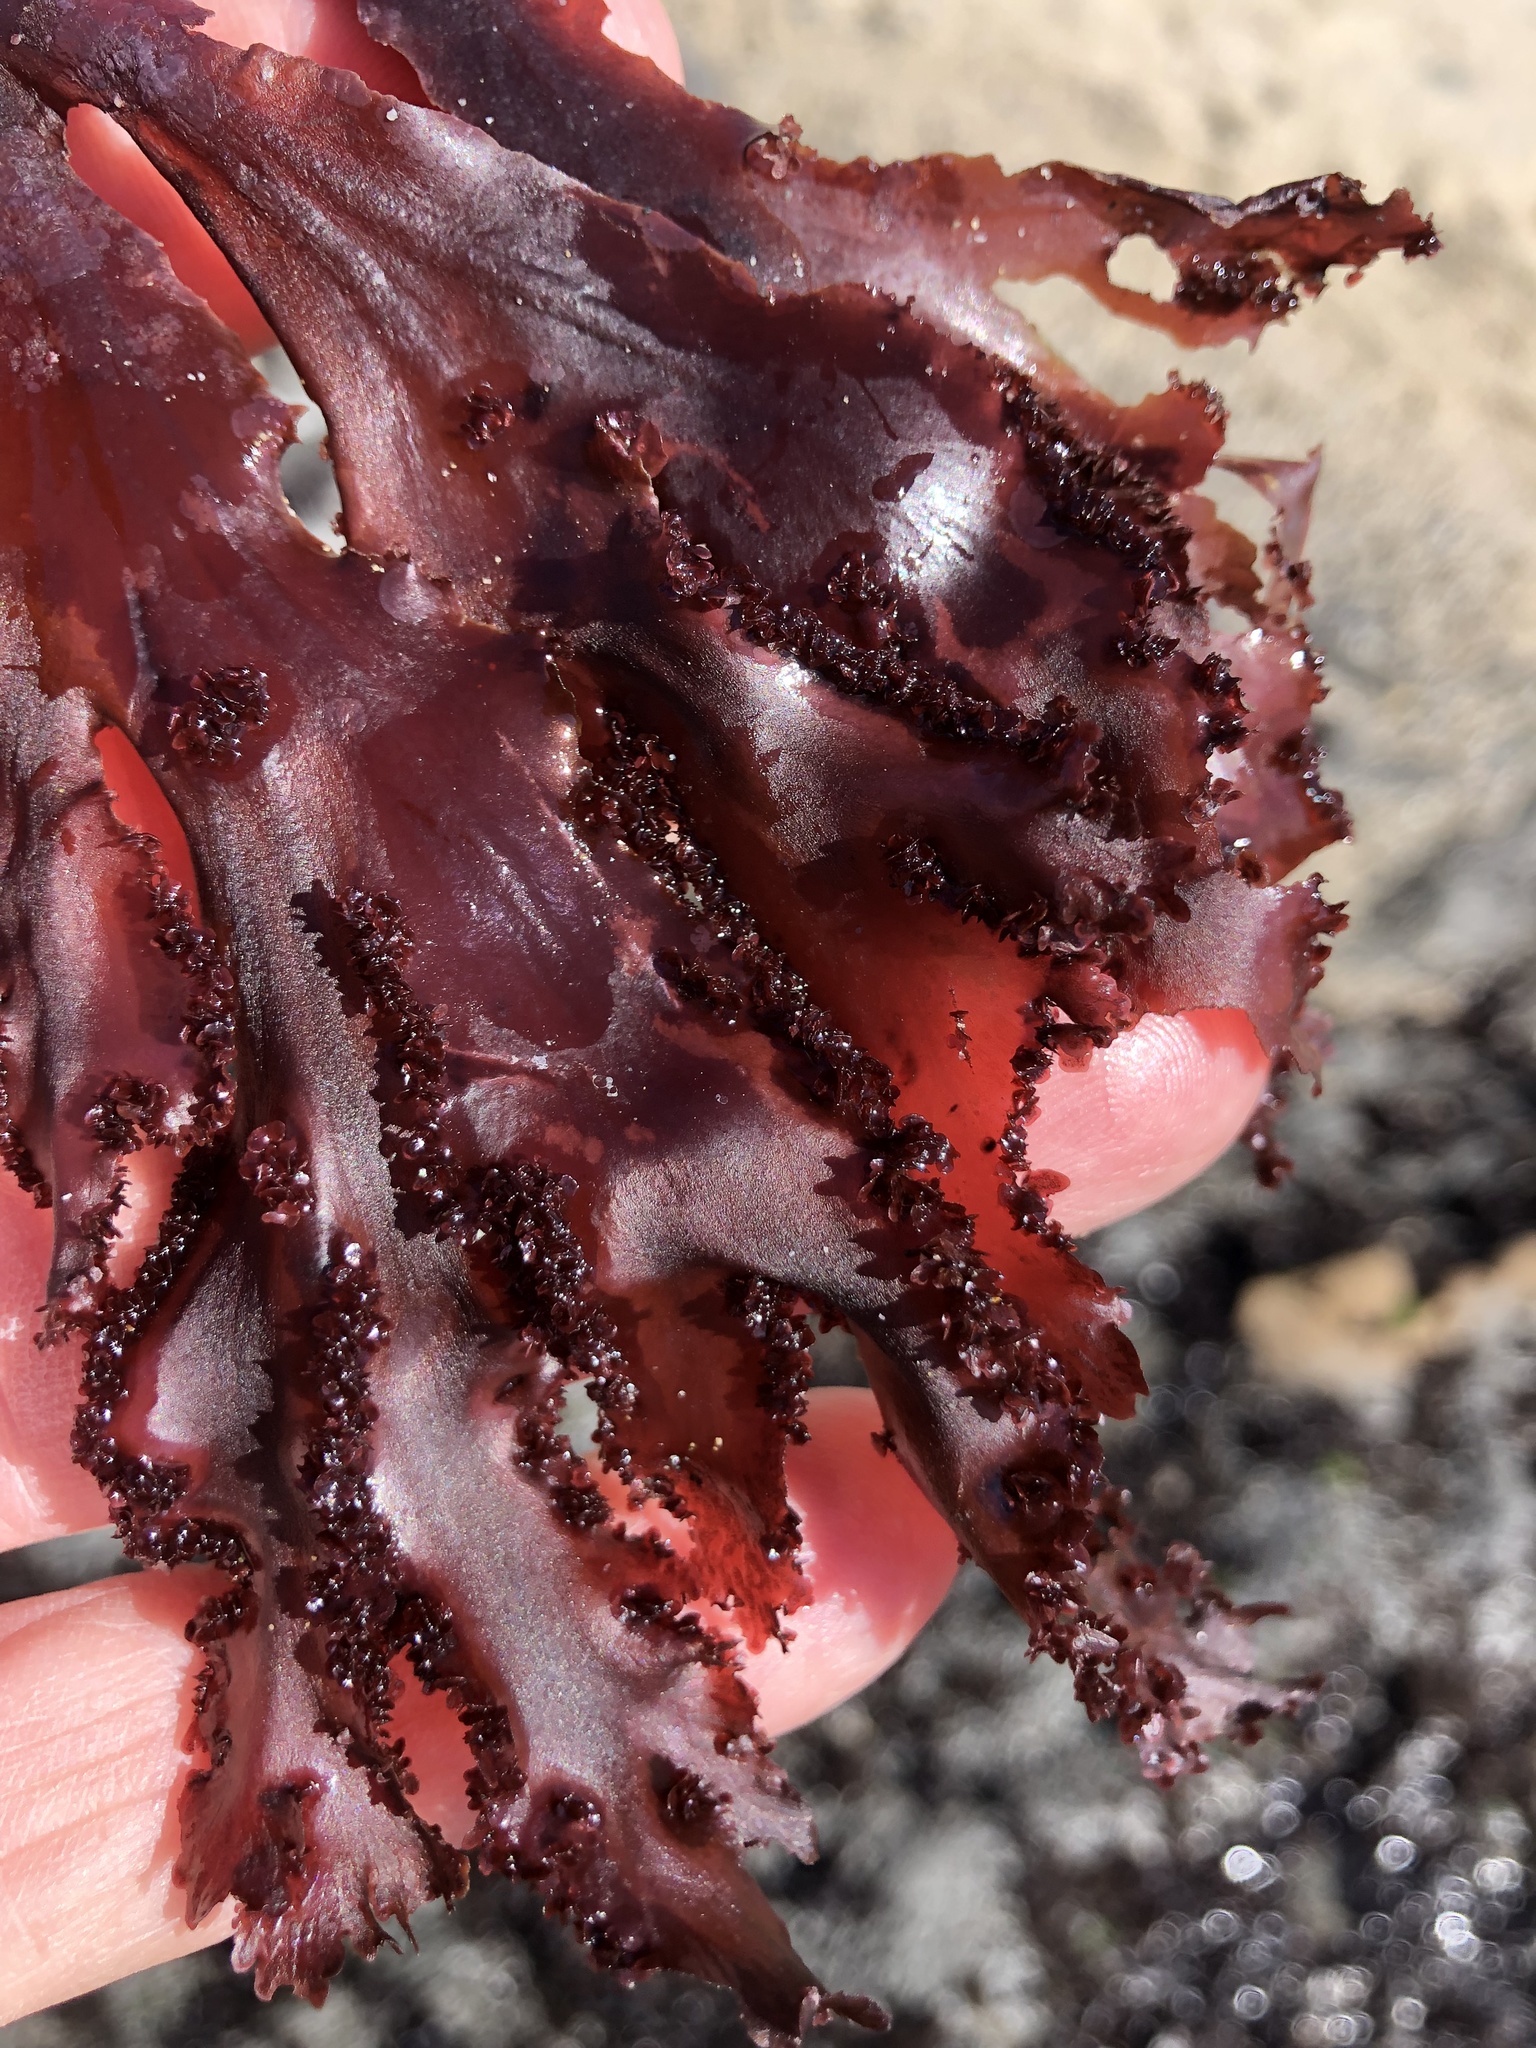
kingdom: Plantae
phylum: Rhodophyta
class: Florideophyceae
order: Ceramiales
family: Delesseriaceae
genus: Cryptopleura
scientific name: Cryptopleura ruprechtiana
